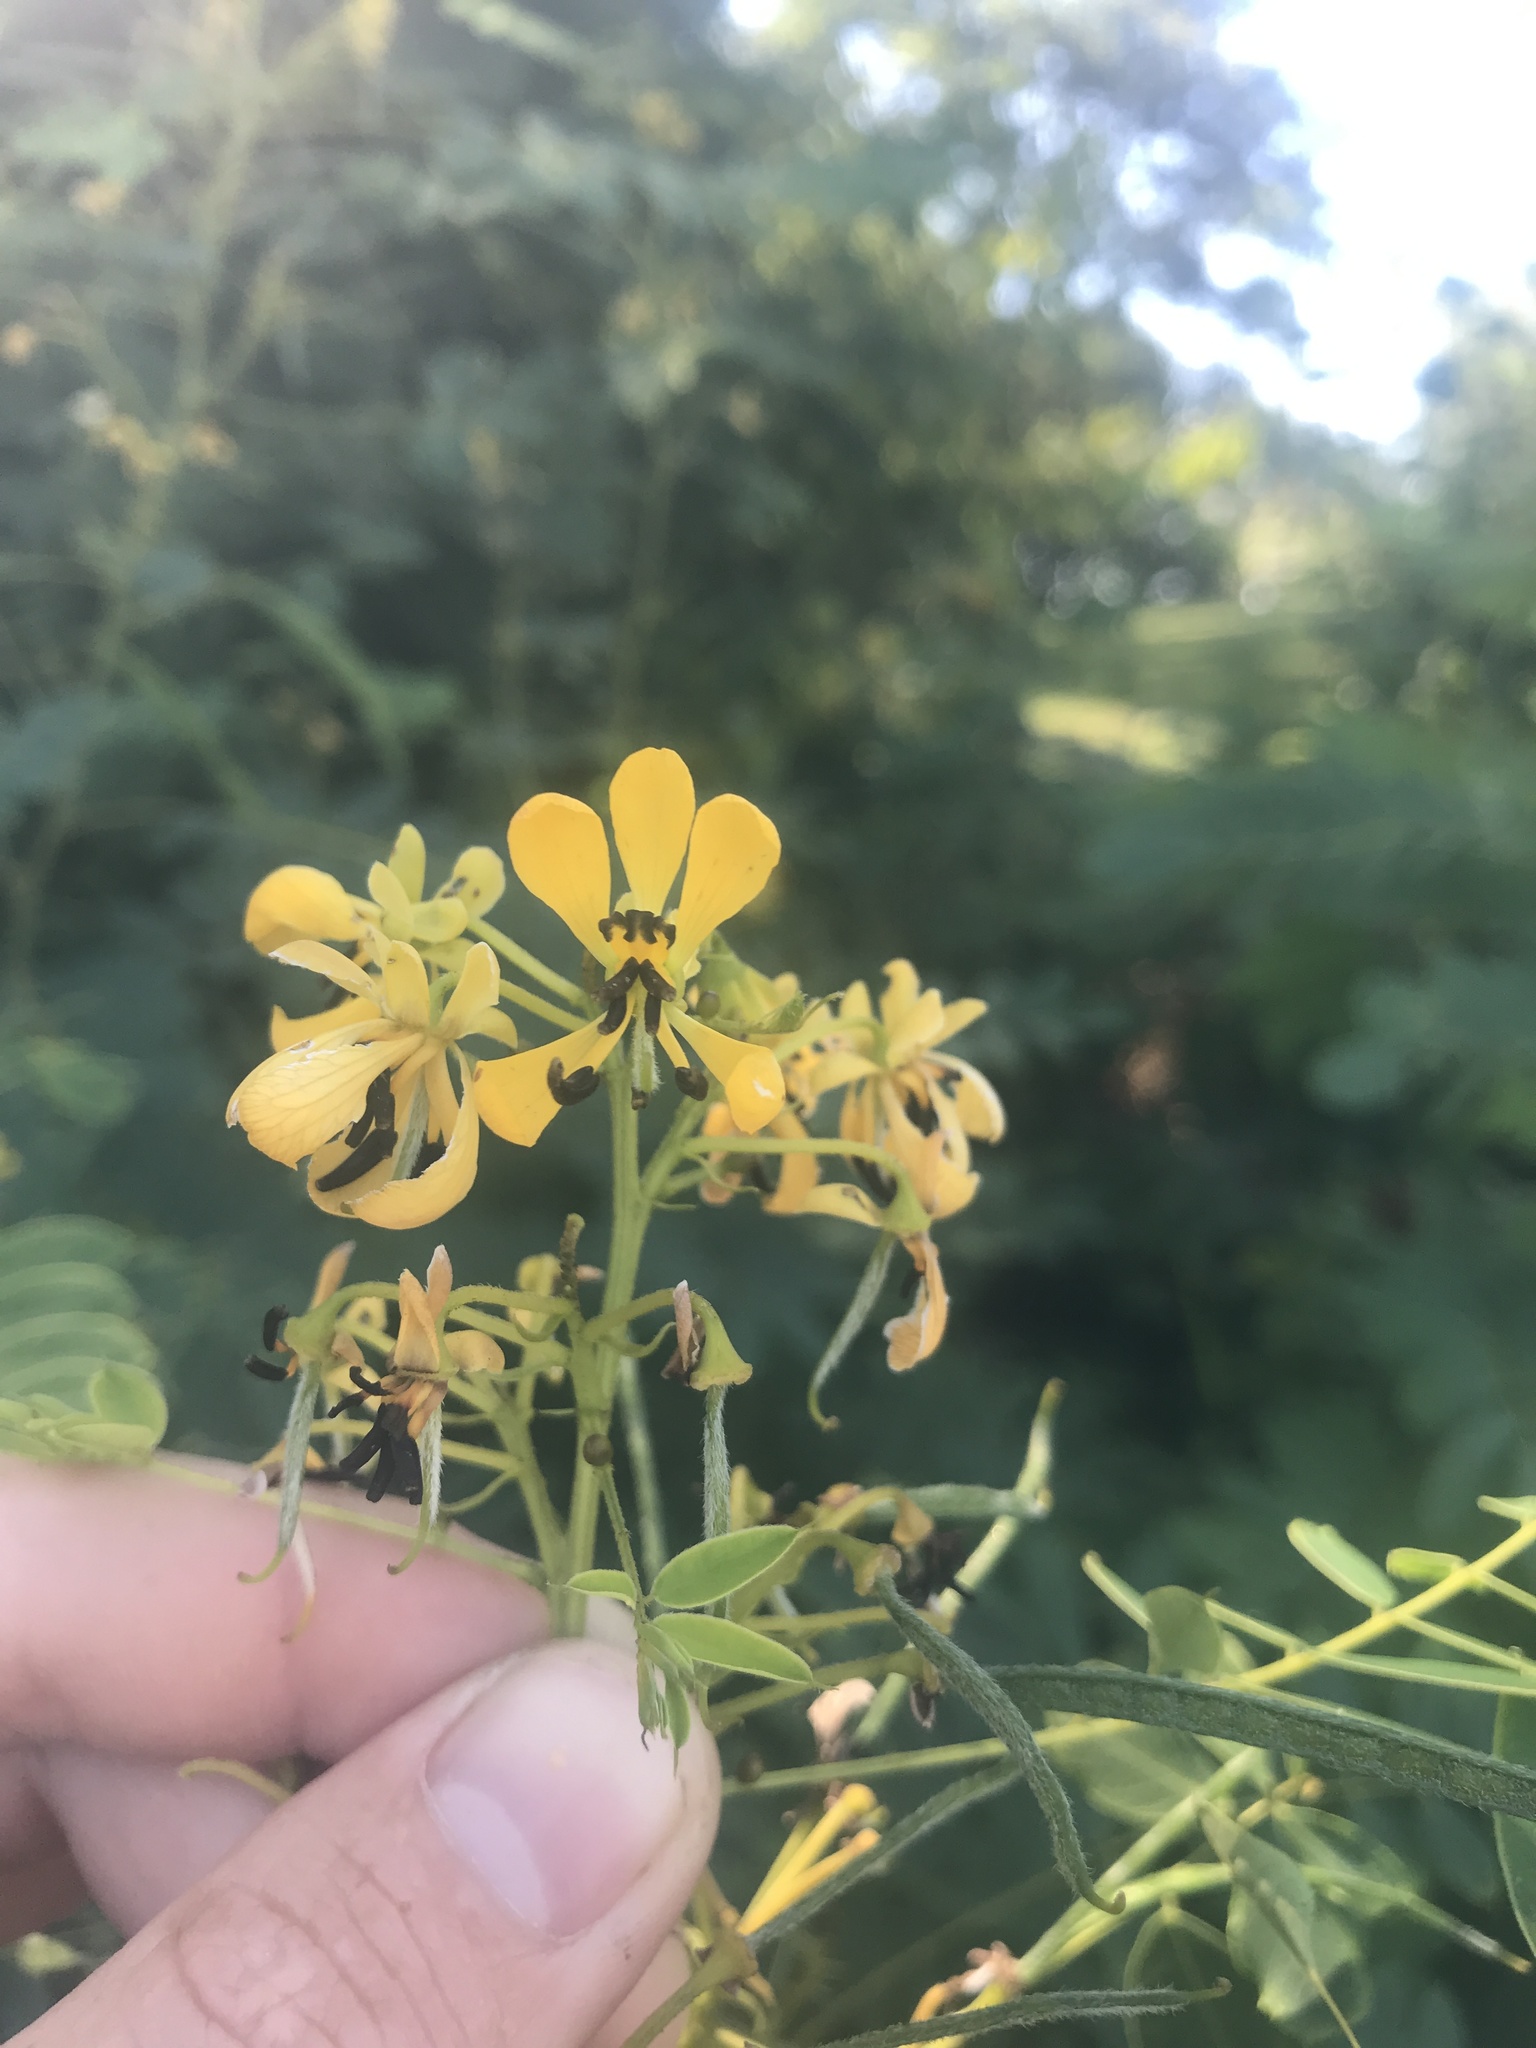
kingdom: Plantae
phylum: Tracheophyta
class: Magnoliopsida
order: Fabales
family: Fabaceae
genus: Senna
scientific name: Senna hebecarpa
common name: Wild senna
